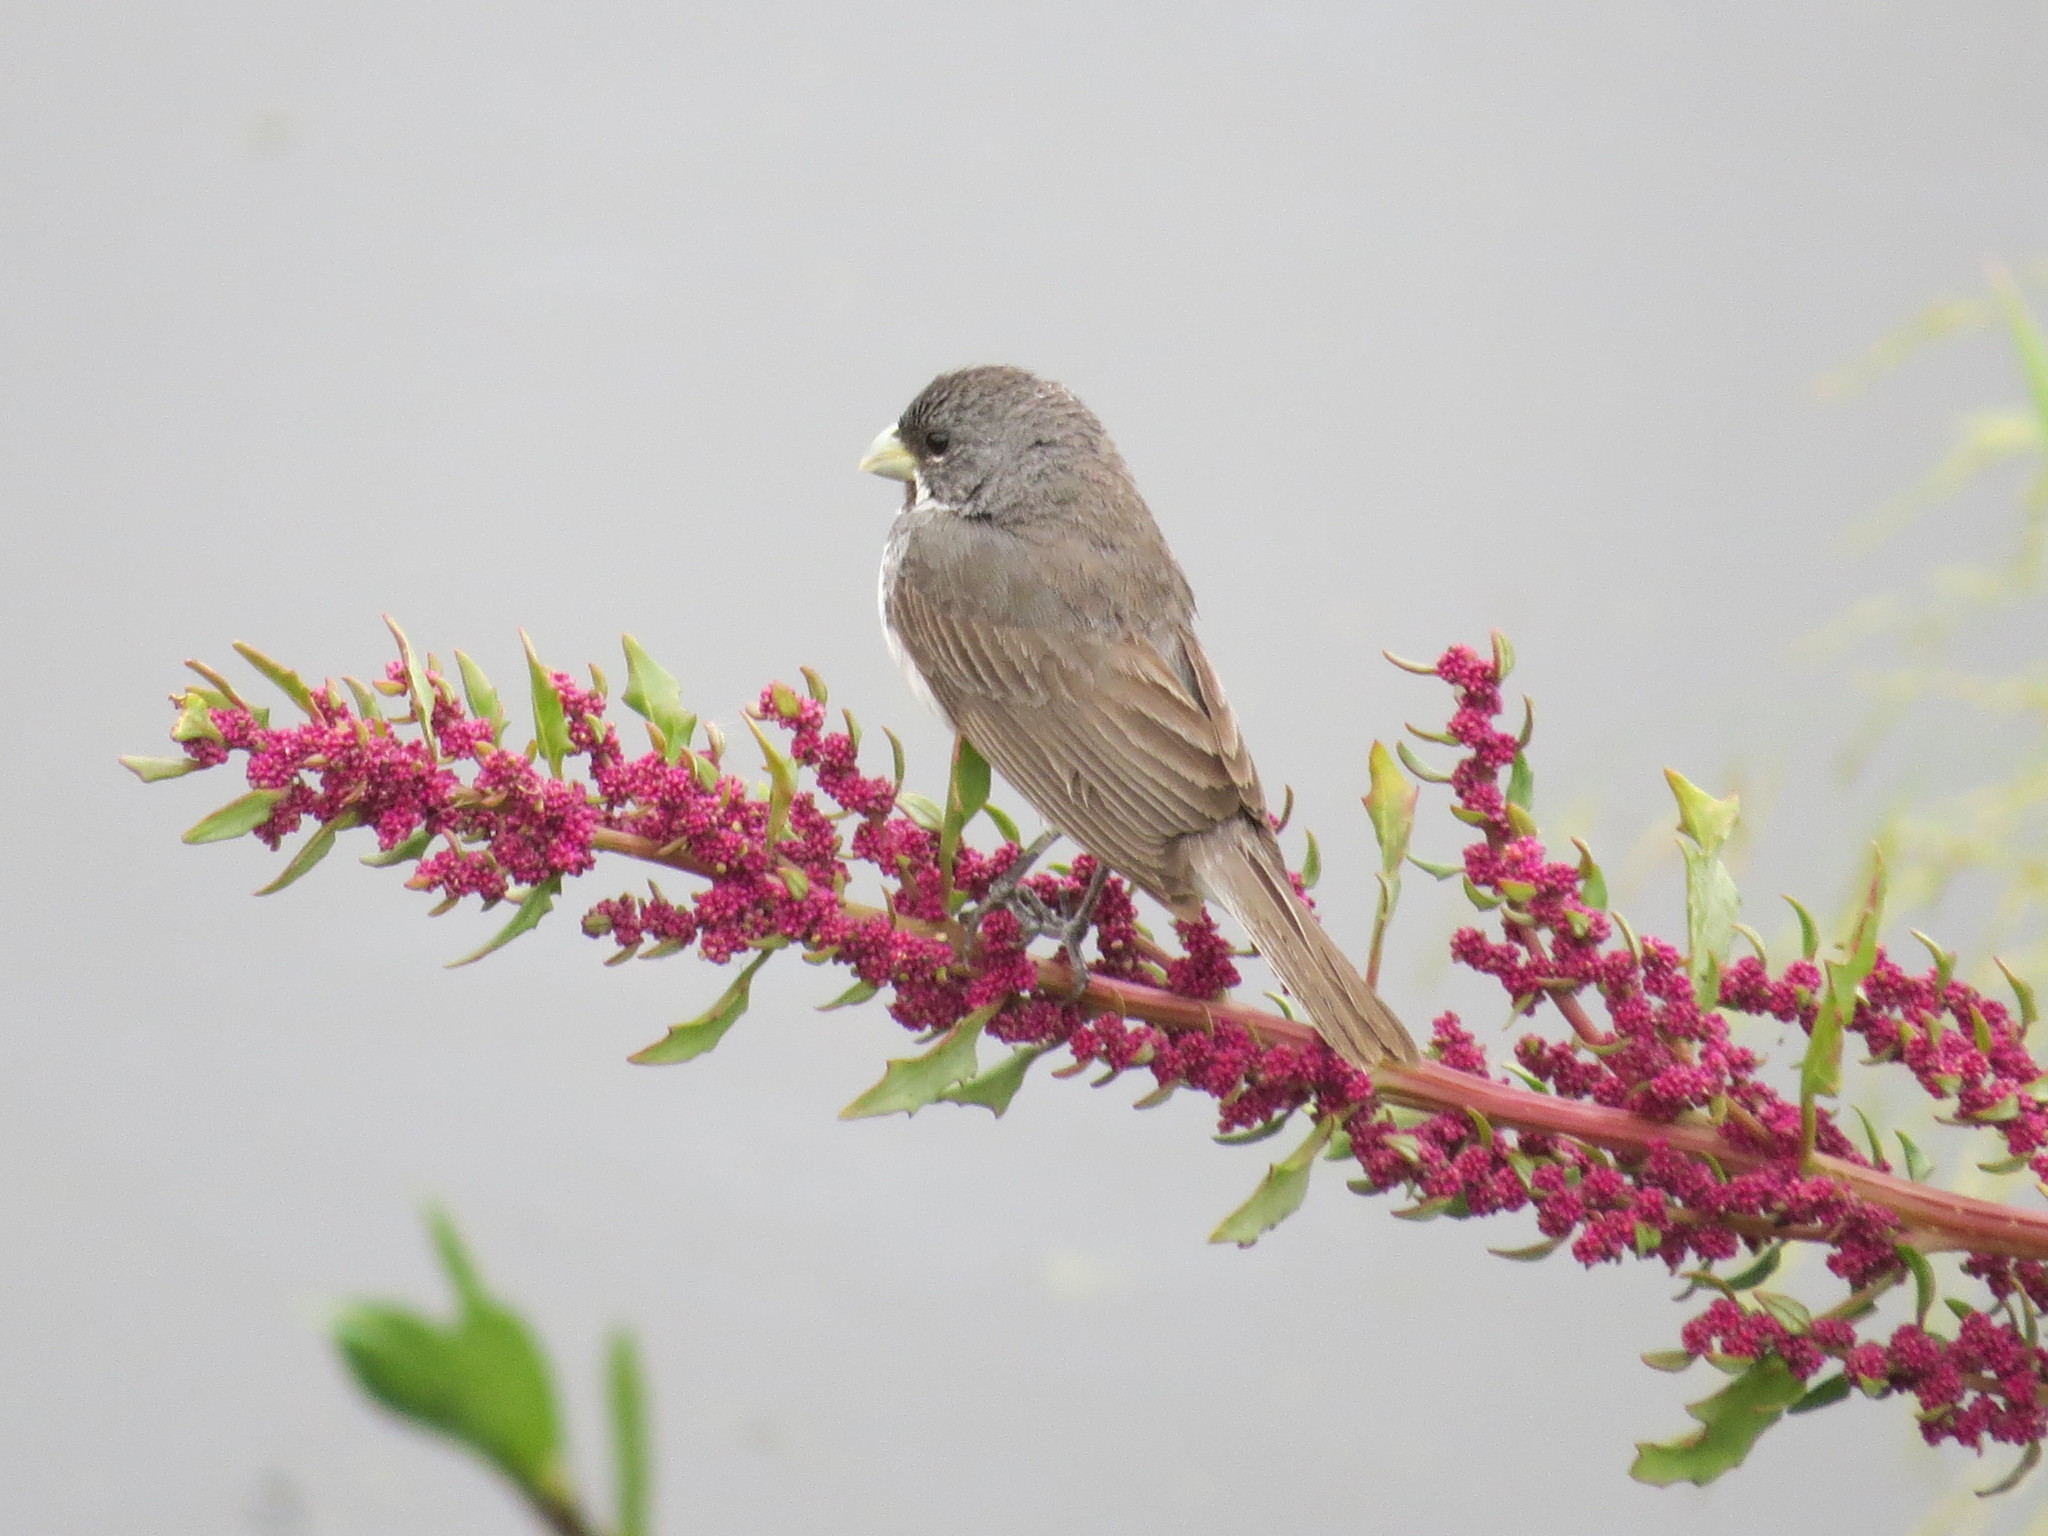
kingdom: Animalia
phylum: Chordata
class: Aves
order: Passeriformes
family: Thraupidae
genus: Sporophila
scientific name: Sporophila caerulescens
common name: Double-collared seedeater
